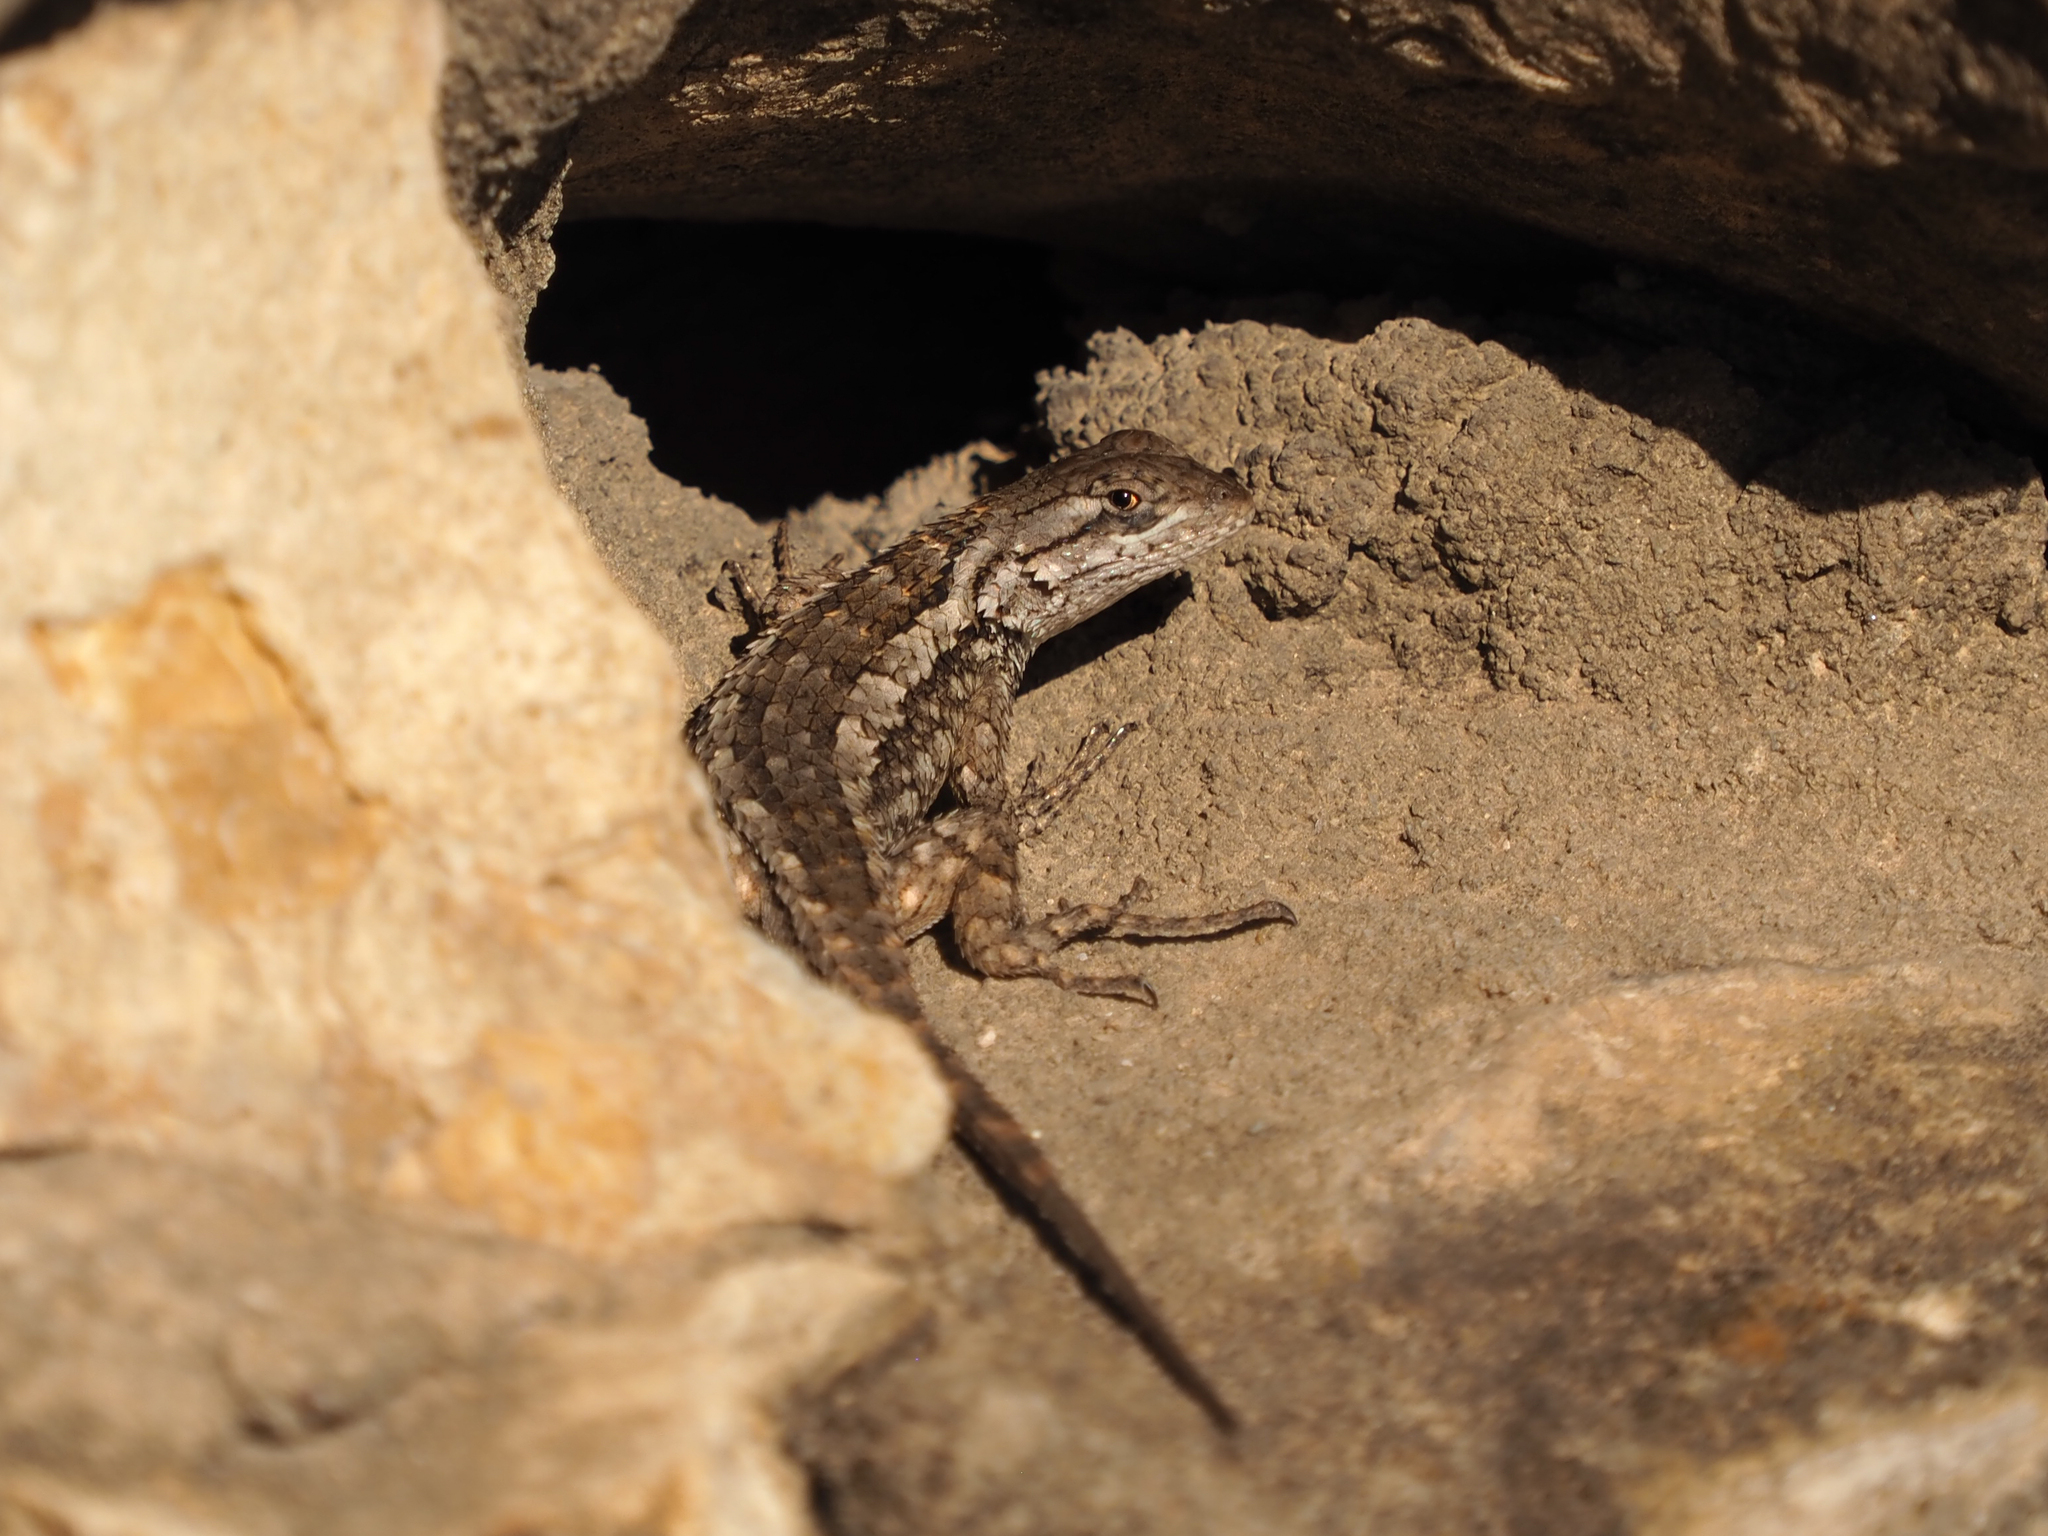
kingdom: Animalia
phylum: Chordata
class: Squamata
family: Phrynosomatidae
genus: Sceloporus
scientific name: Sceloporus olivaceus
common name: Texas spiny lizard
